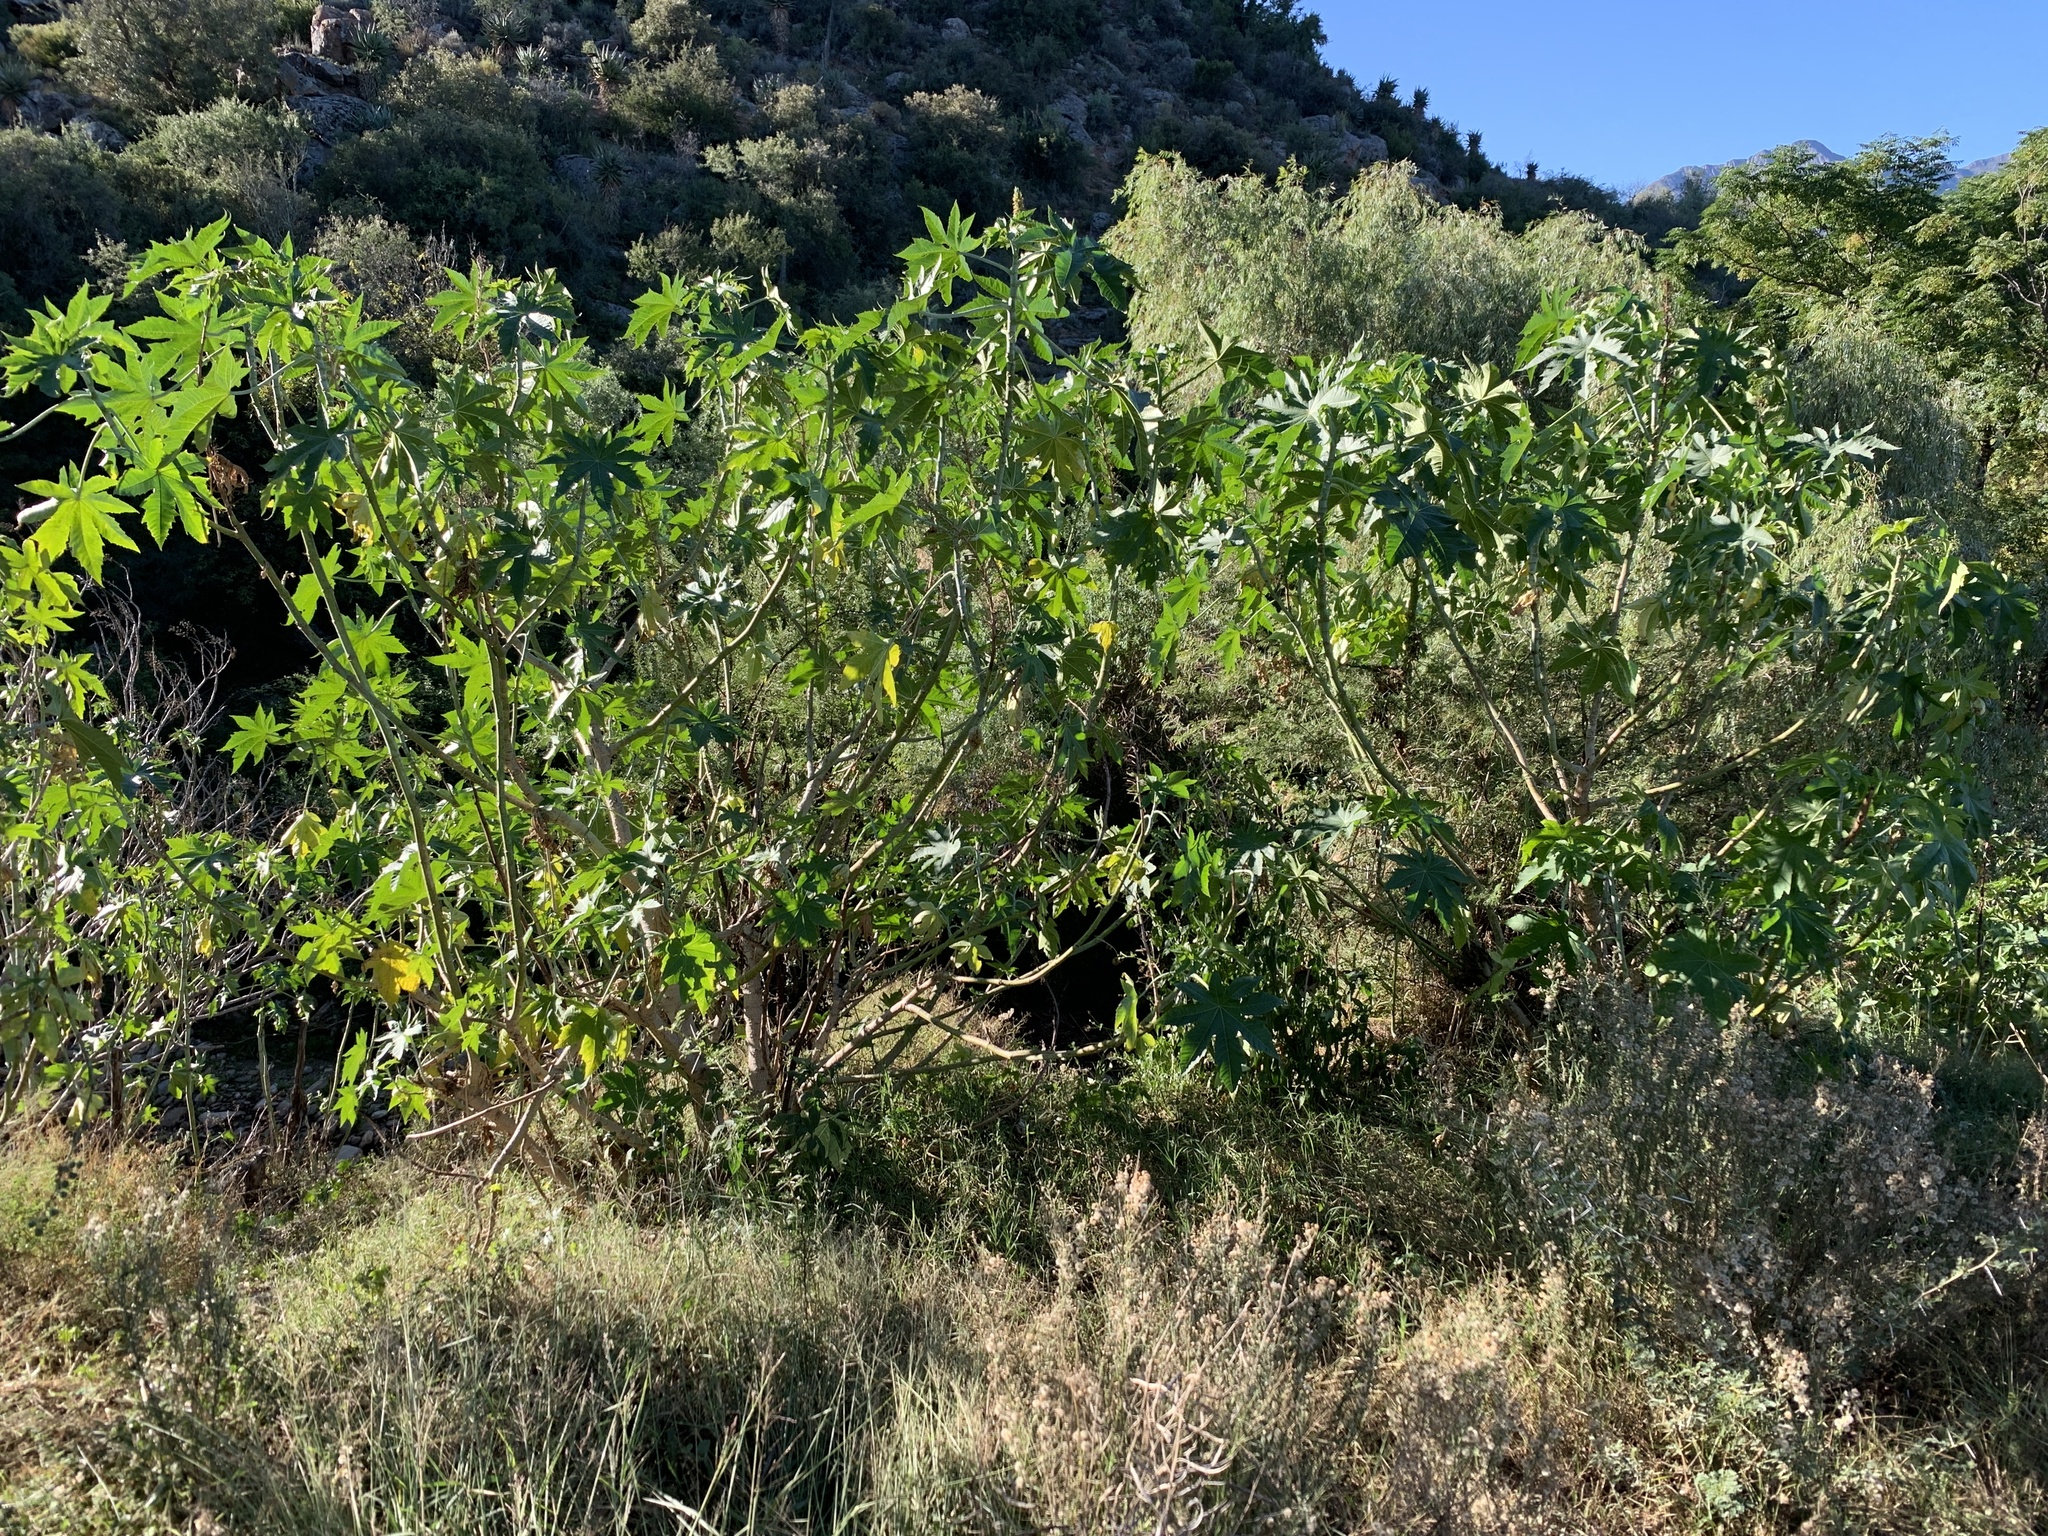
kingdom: Plantae
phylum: Tracheophyta
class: Magnoliopsida
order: Malpighiales
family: Euphorbiaceae
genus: Ricinus
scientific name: Ricinus communis
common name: Castor-oil-plant
